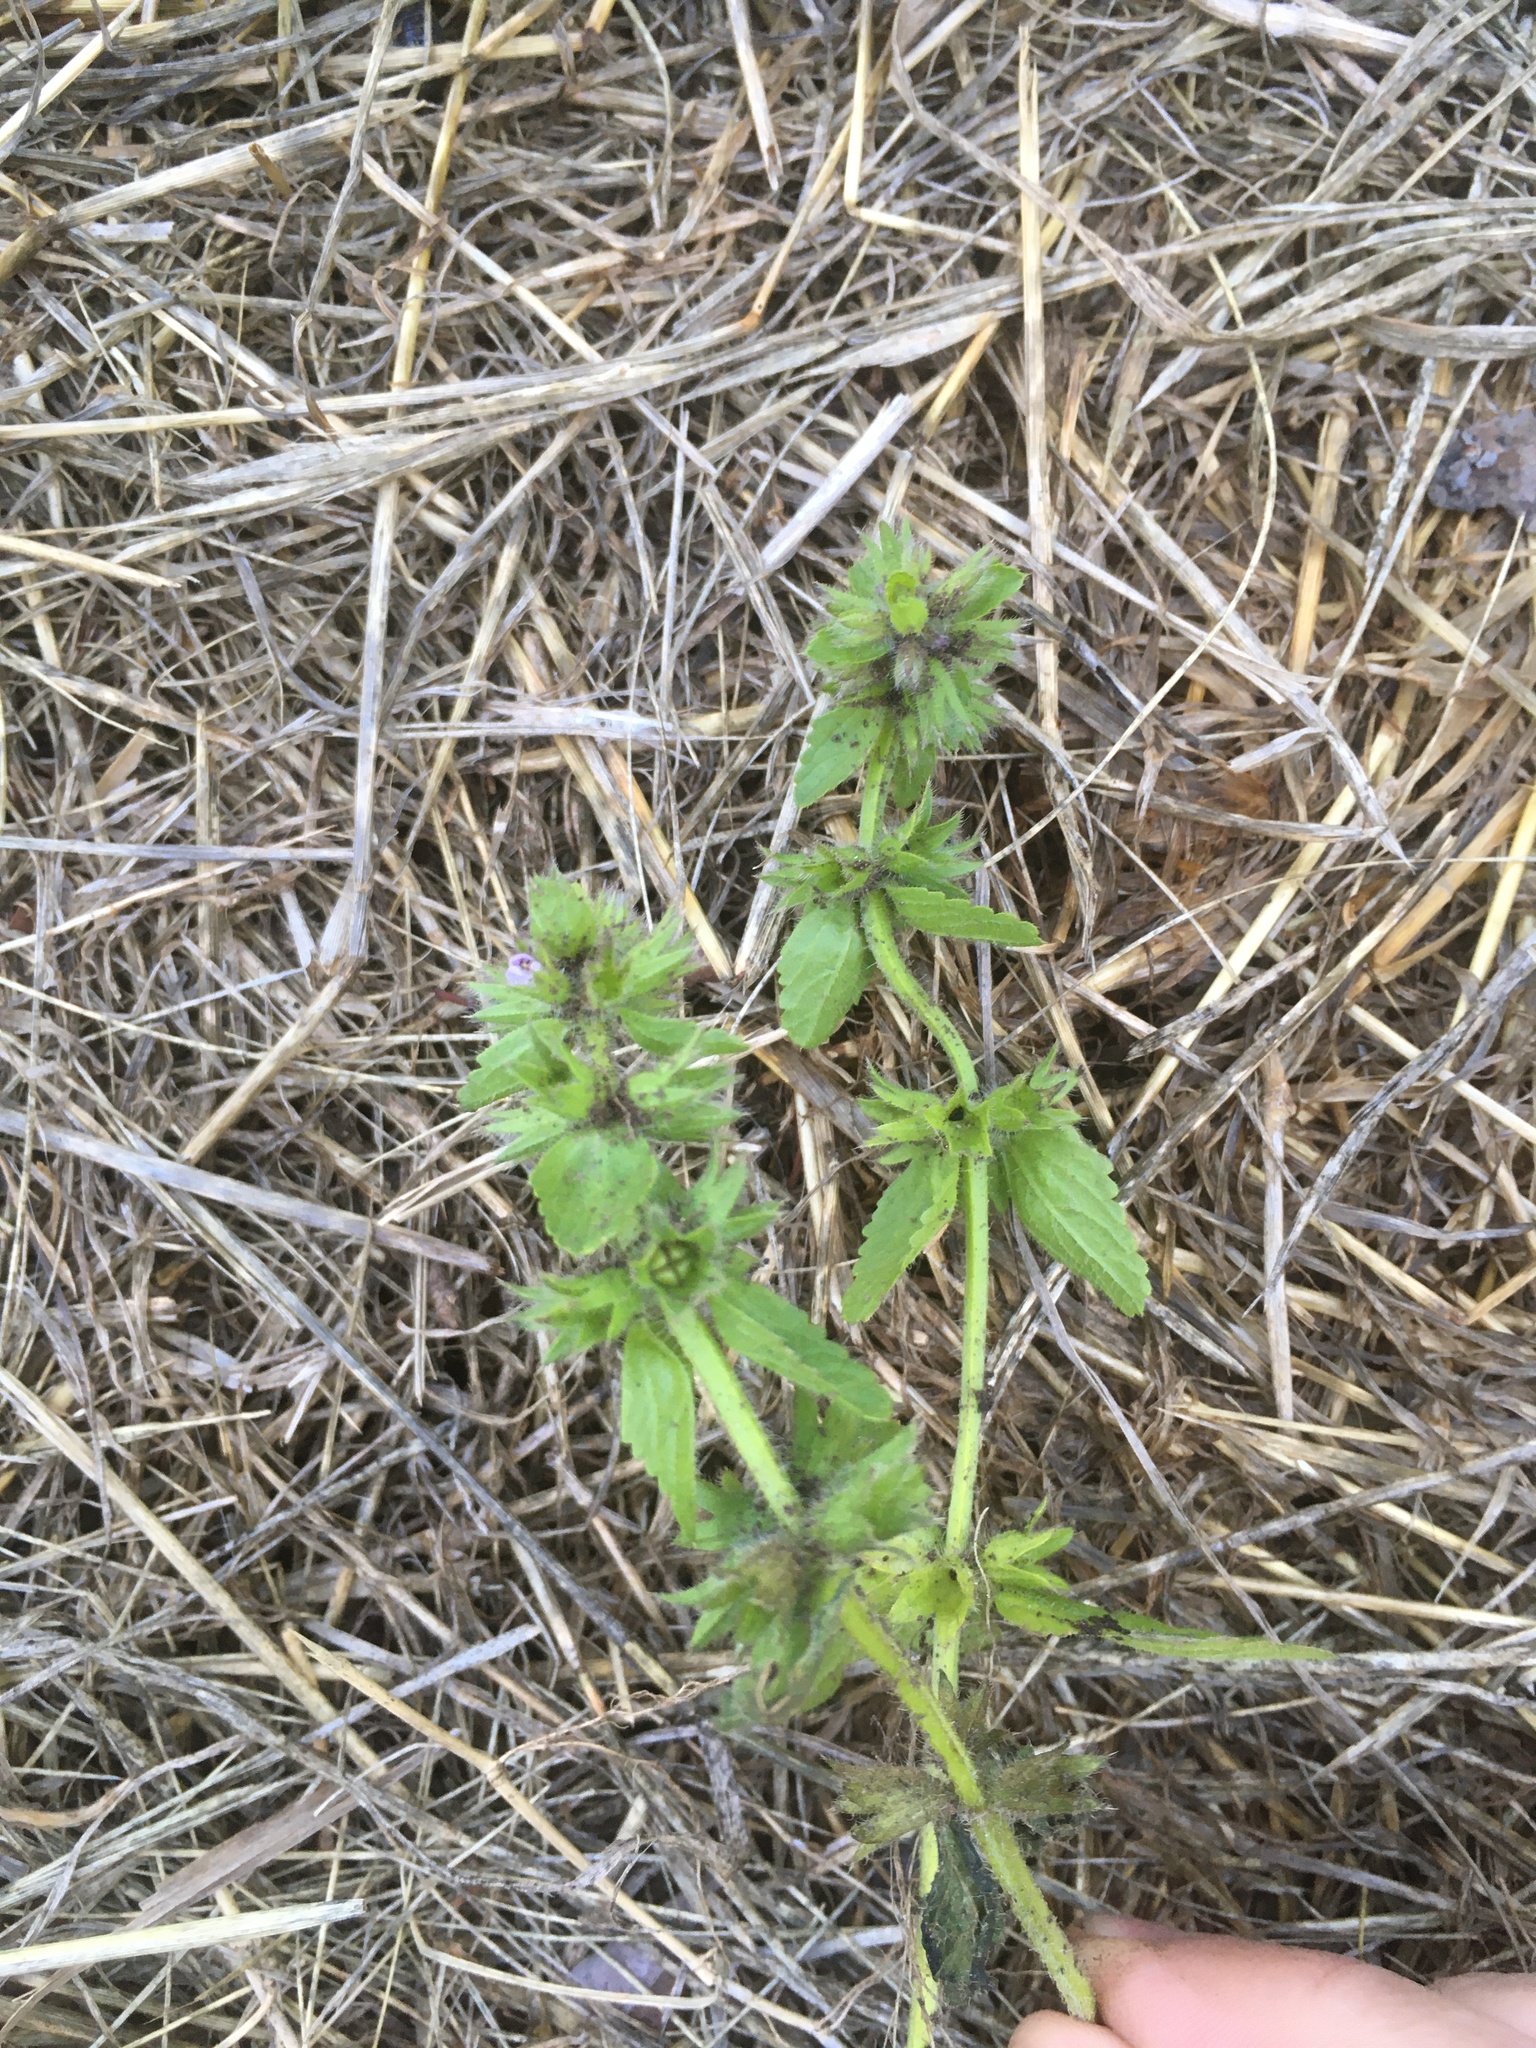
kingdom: Plantae
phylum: Tracheophyta
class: Magnoliopsida
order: Lamiales
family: Lamiaceae
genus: Stachys
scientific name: Stachys arvensis
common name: Field woundwort
